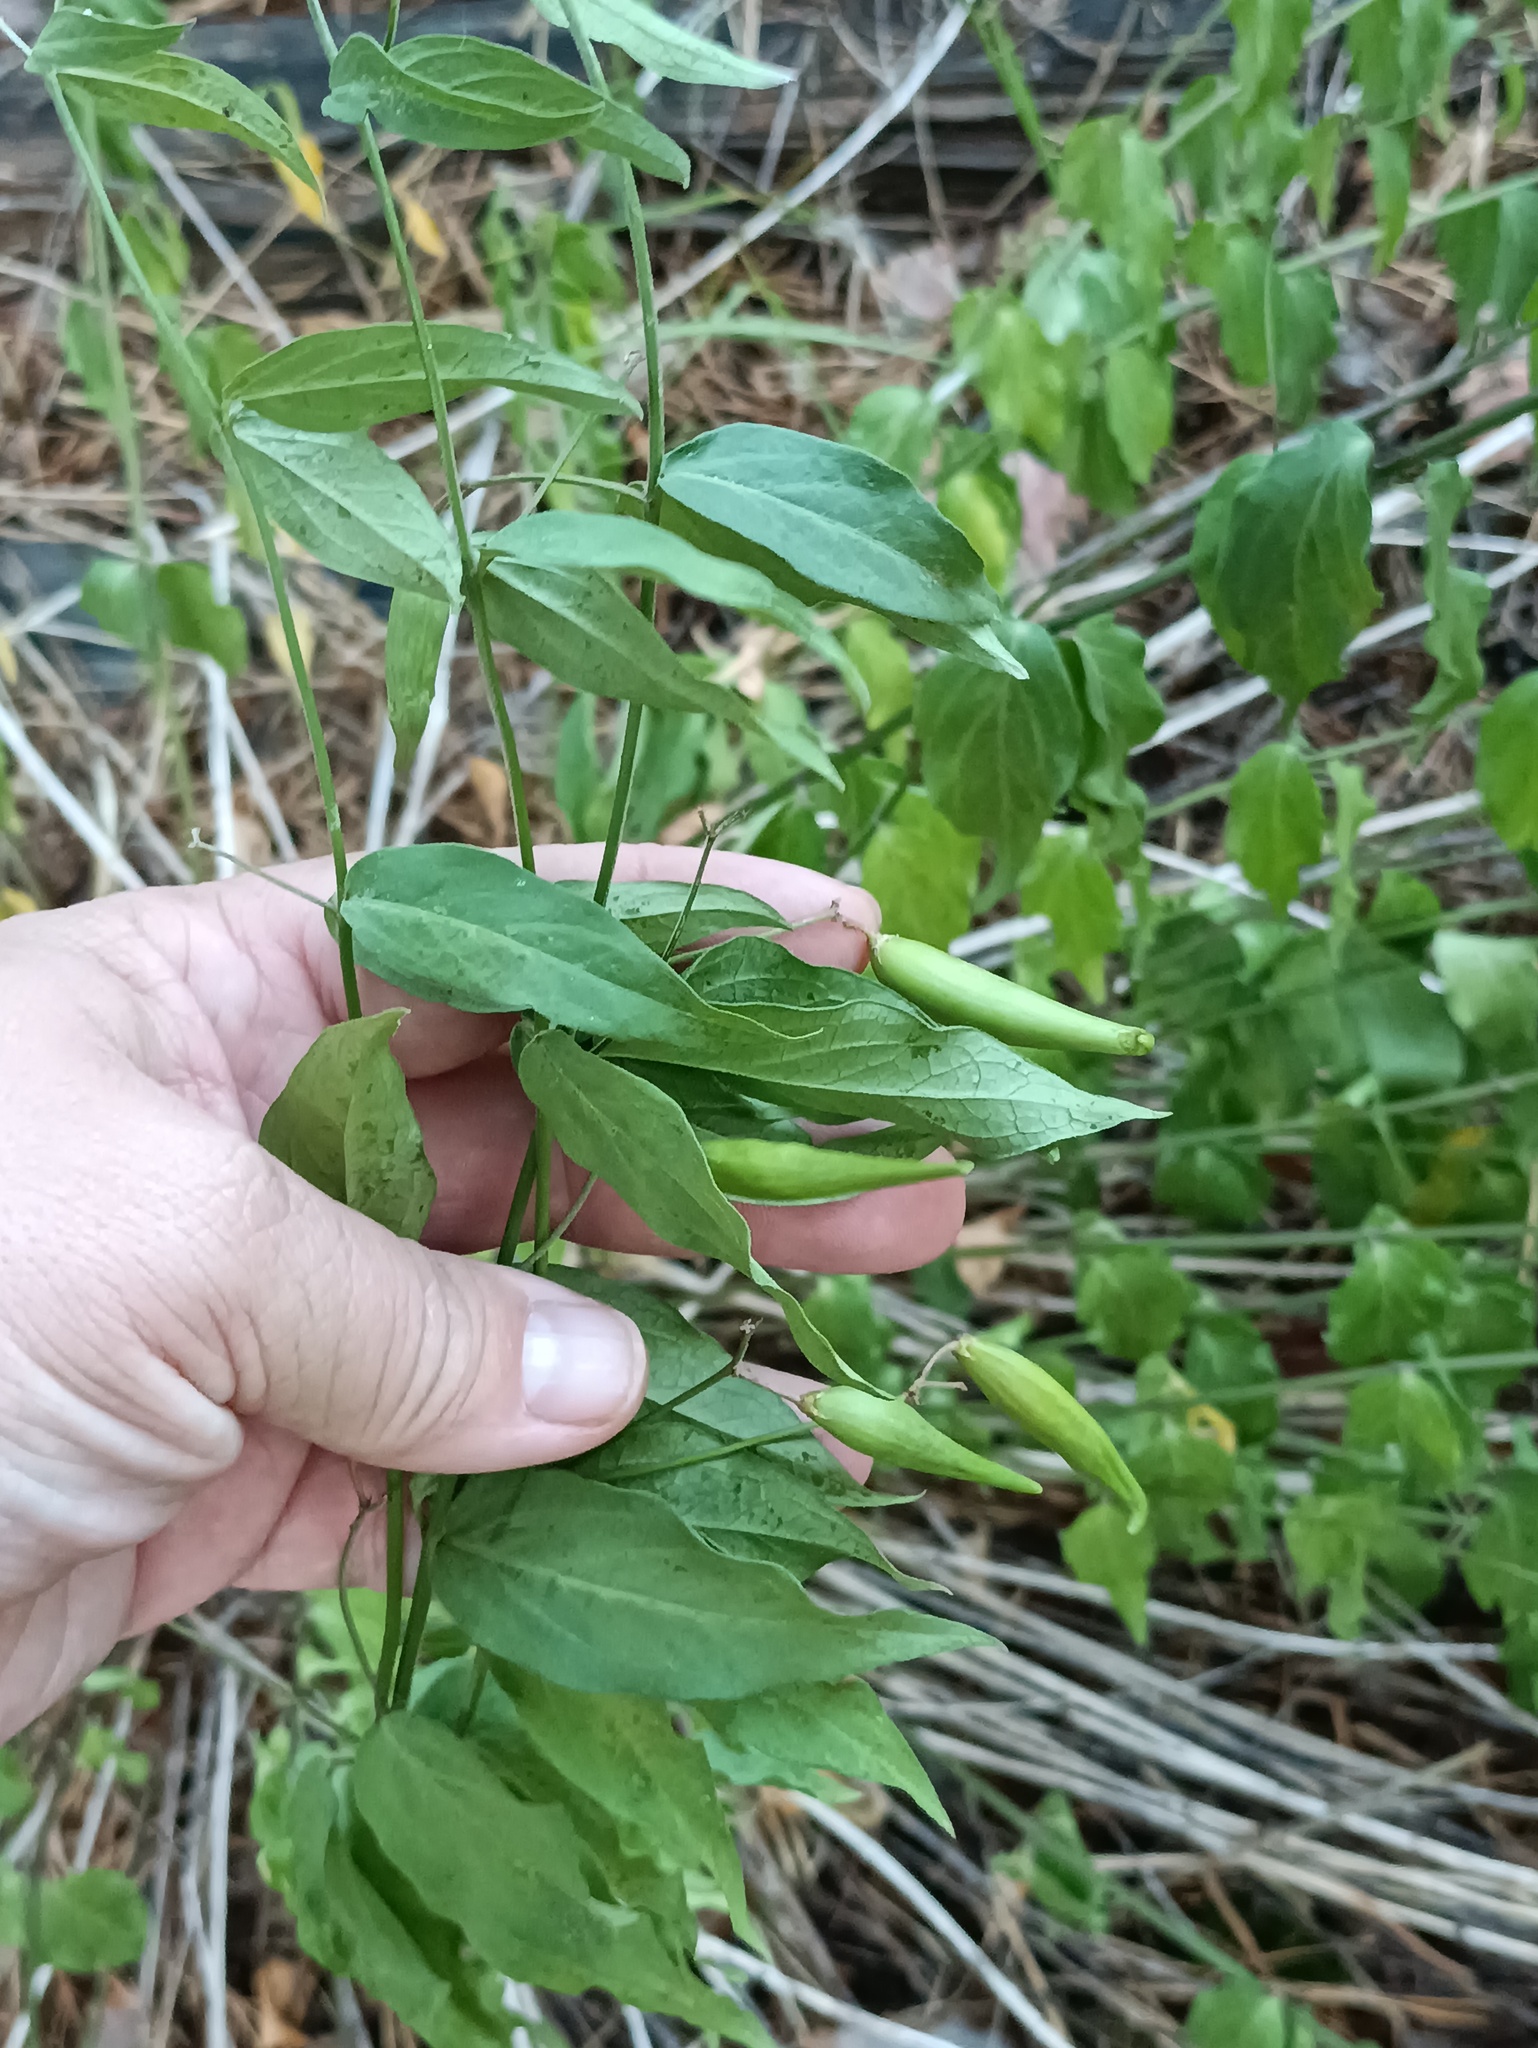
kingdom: Plantae
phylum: Tracheophyta
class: Magnoliopsida
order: Gentianales
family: Apocynaceae
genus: Vincetoxicum
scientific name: Vincetoxicum hirundinaria
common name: White swallowwort
